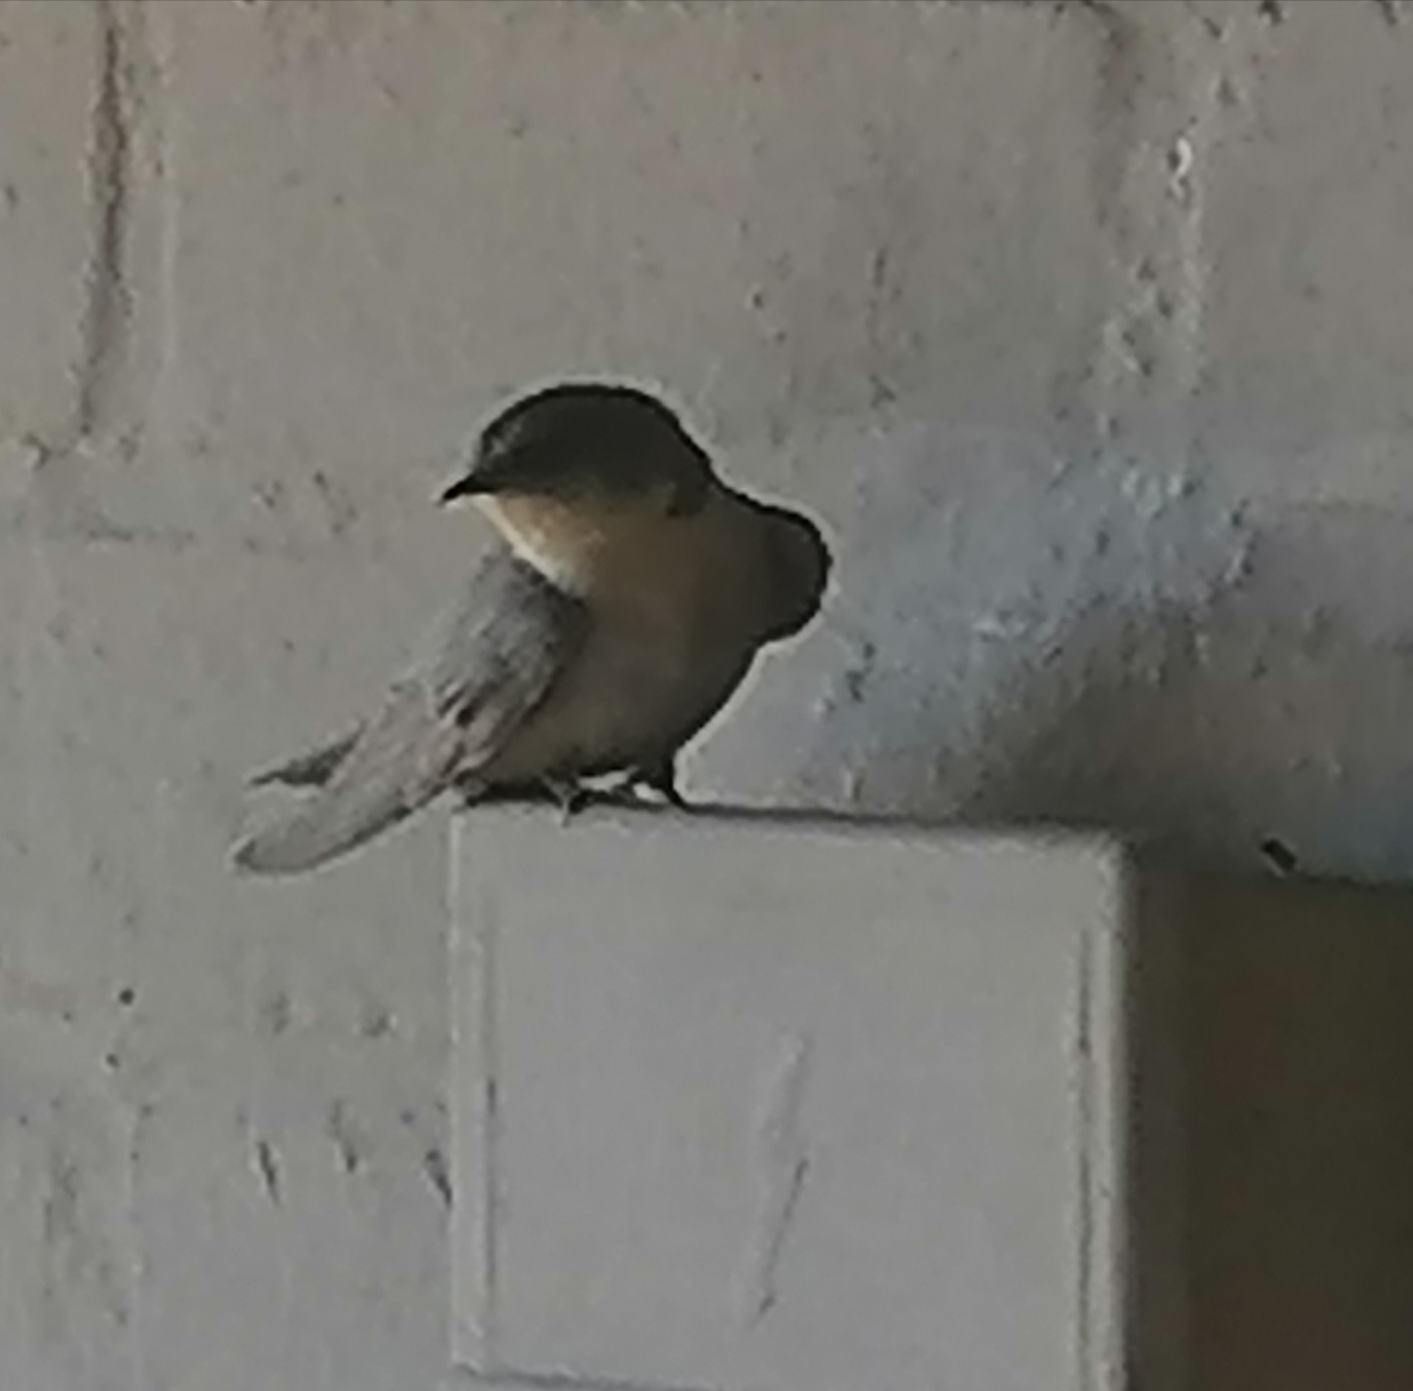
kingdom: Animalia
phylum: Chordata
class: Aves
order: Passeriformes
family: Hirundinidae
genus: Ptyonoprogne
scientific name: Ptyonoprogne fuligula
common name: Rock martin
